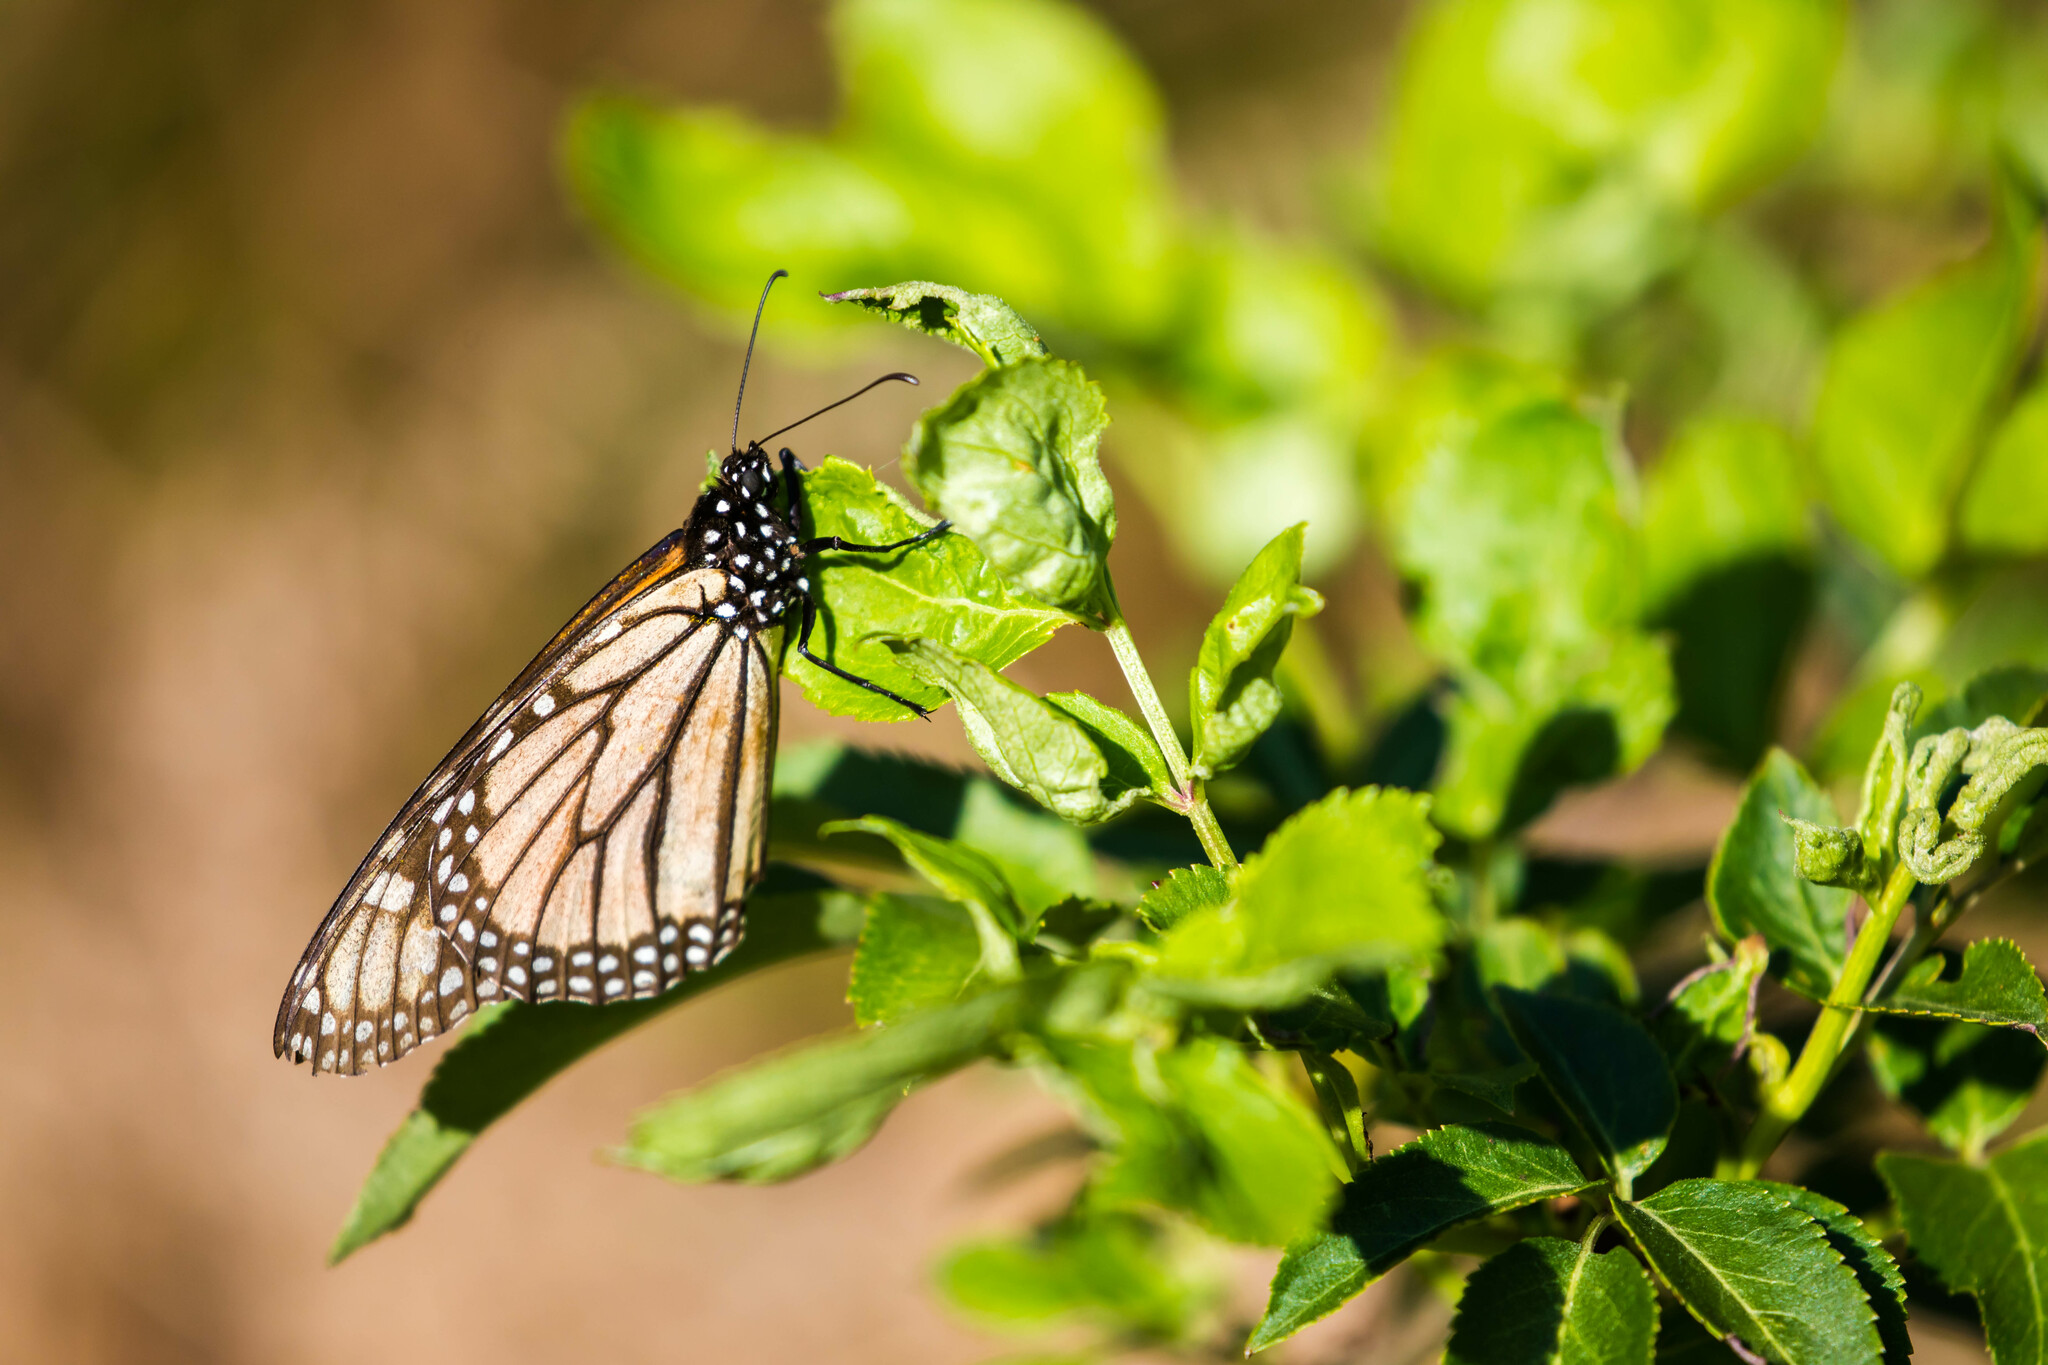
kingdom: Animalia
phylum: Arthropoda
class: Insecta
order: Lepidoptera
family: Nymphalidae
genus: Danaus
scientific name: Danaus plexippus
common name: Monarch
